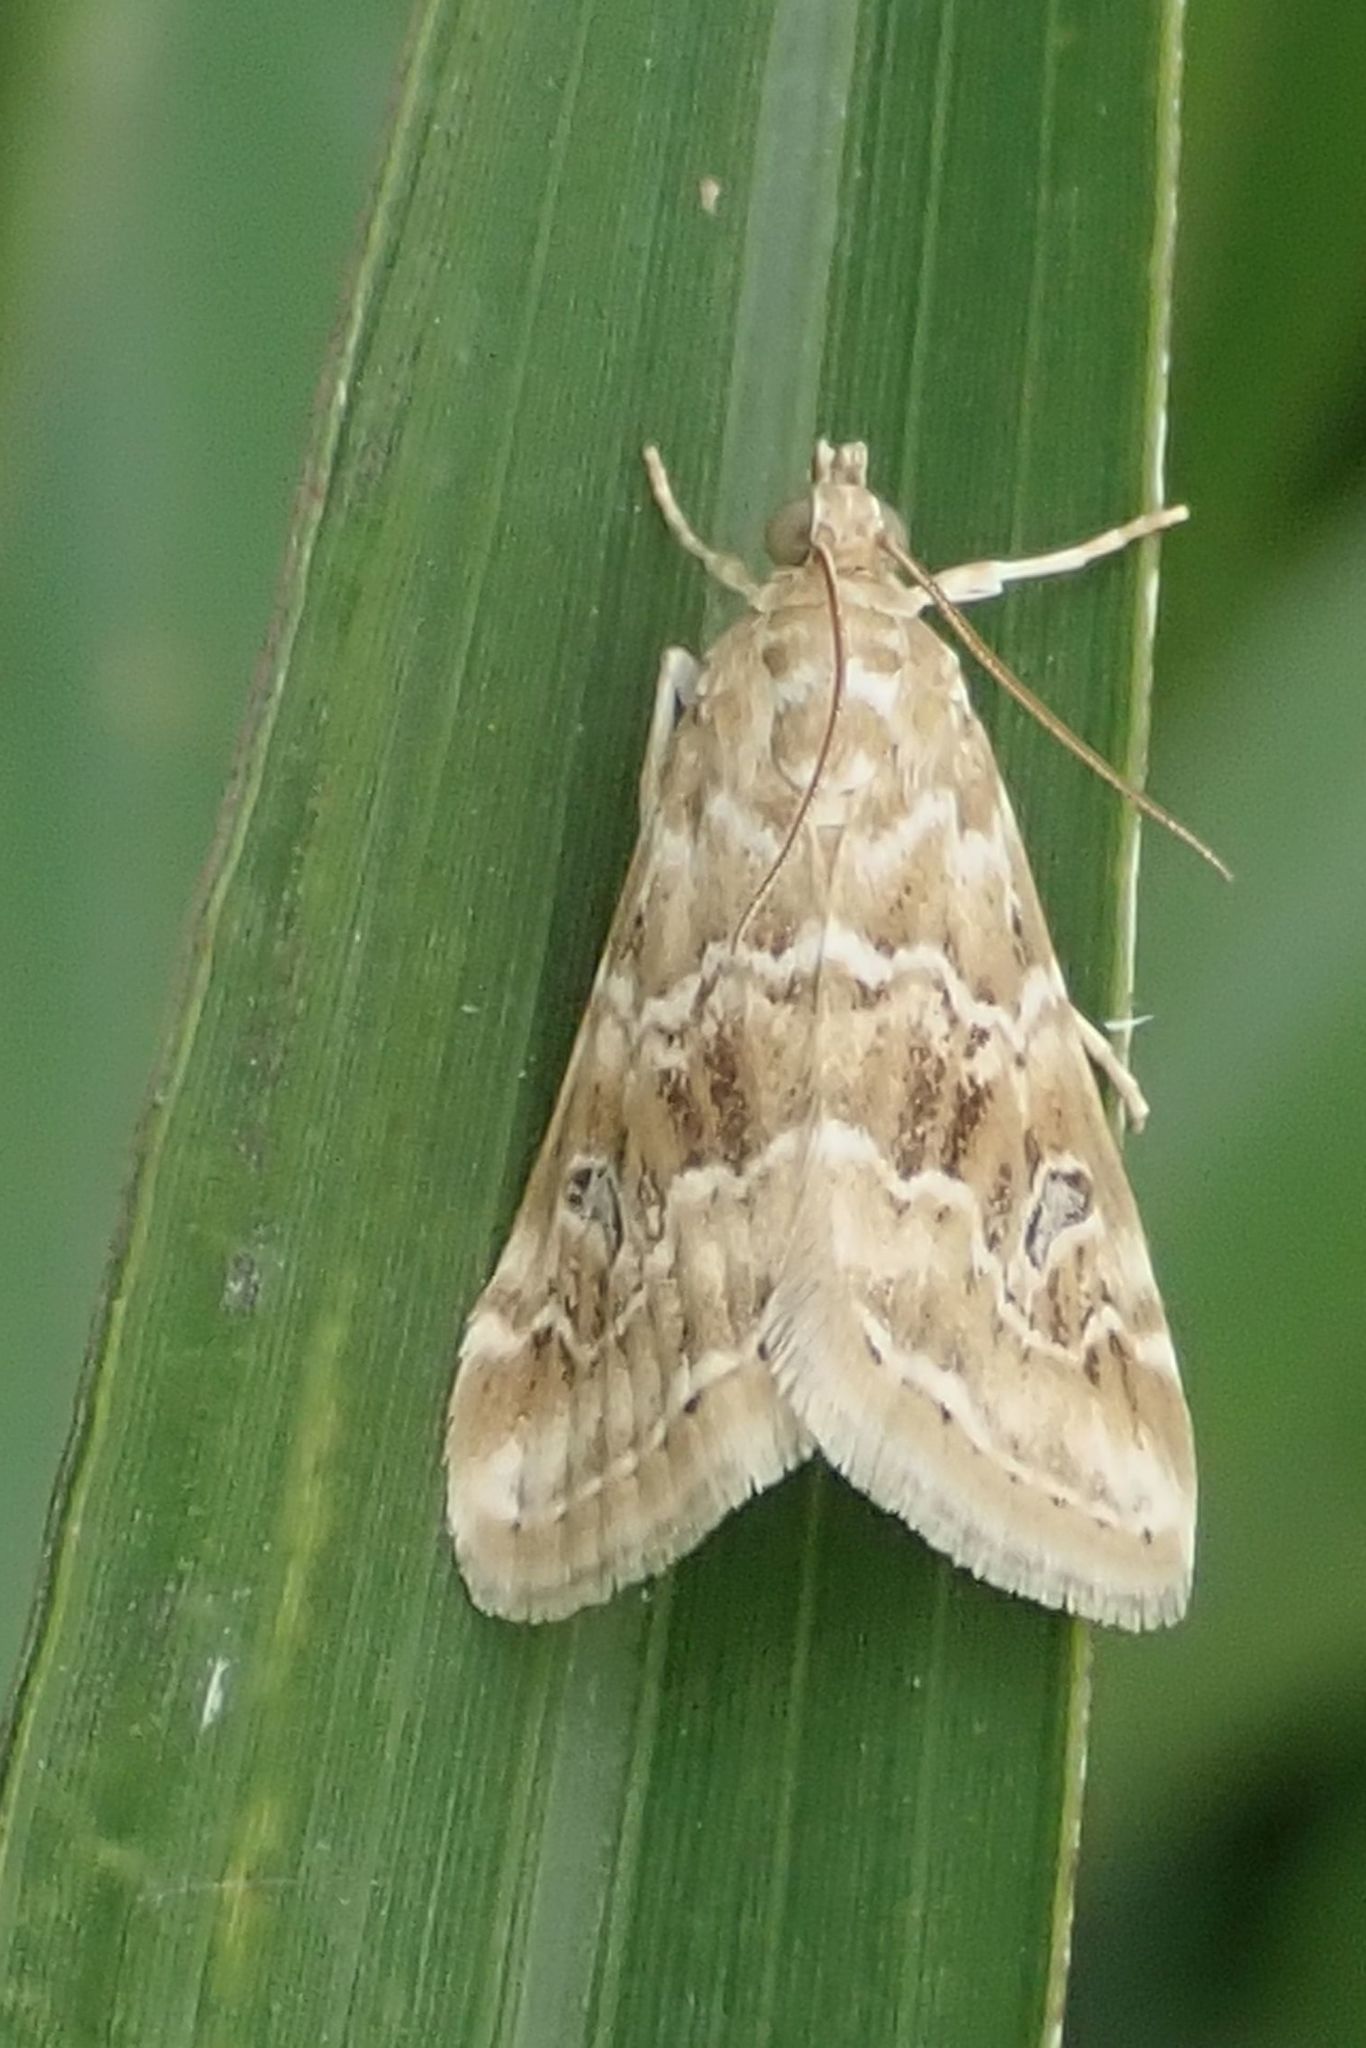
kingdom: Animalia
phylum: Arthropoda
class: Insecta
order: Lepidoptera
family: Crambidae
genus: Hellula
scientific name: Hellula undalis
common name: Cabbage webworm
